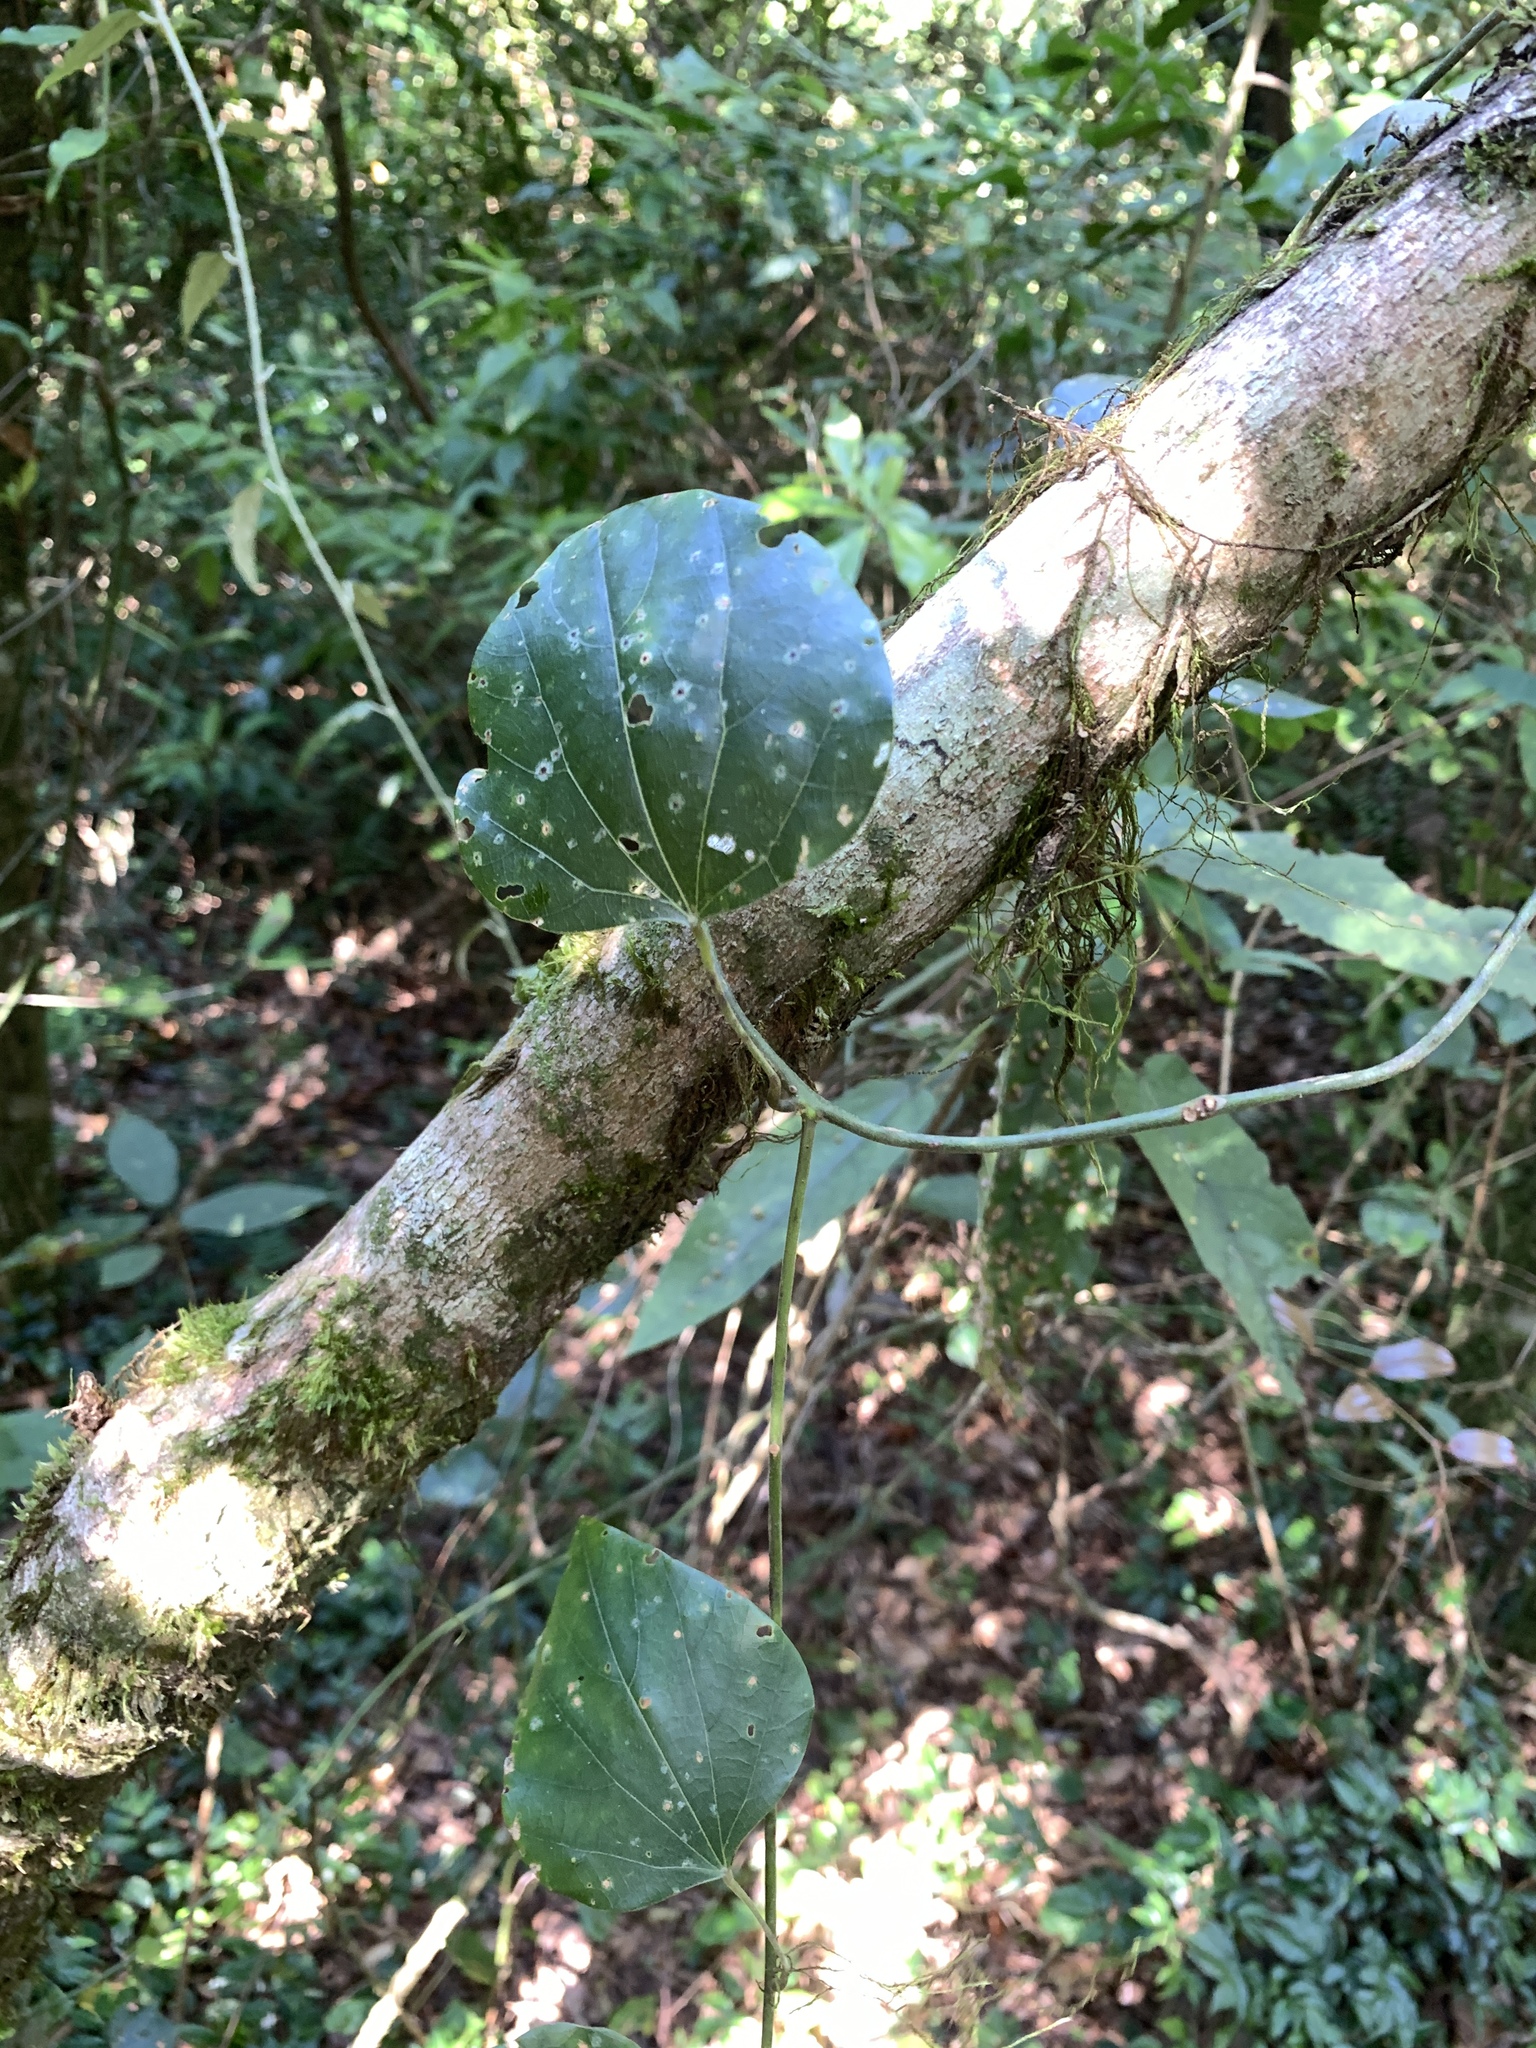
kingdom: Plantae
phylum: Tracheophyta
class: Magnoliopsida
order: Ranunculales
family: Menispermaceae
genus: Pericampylus
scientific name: Pericampylus glaucus
